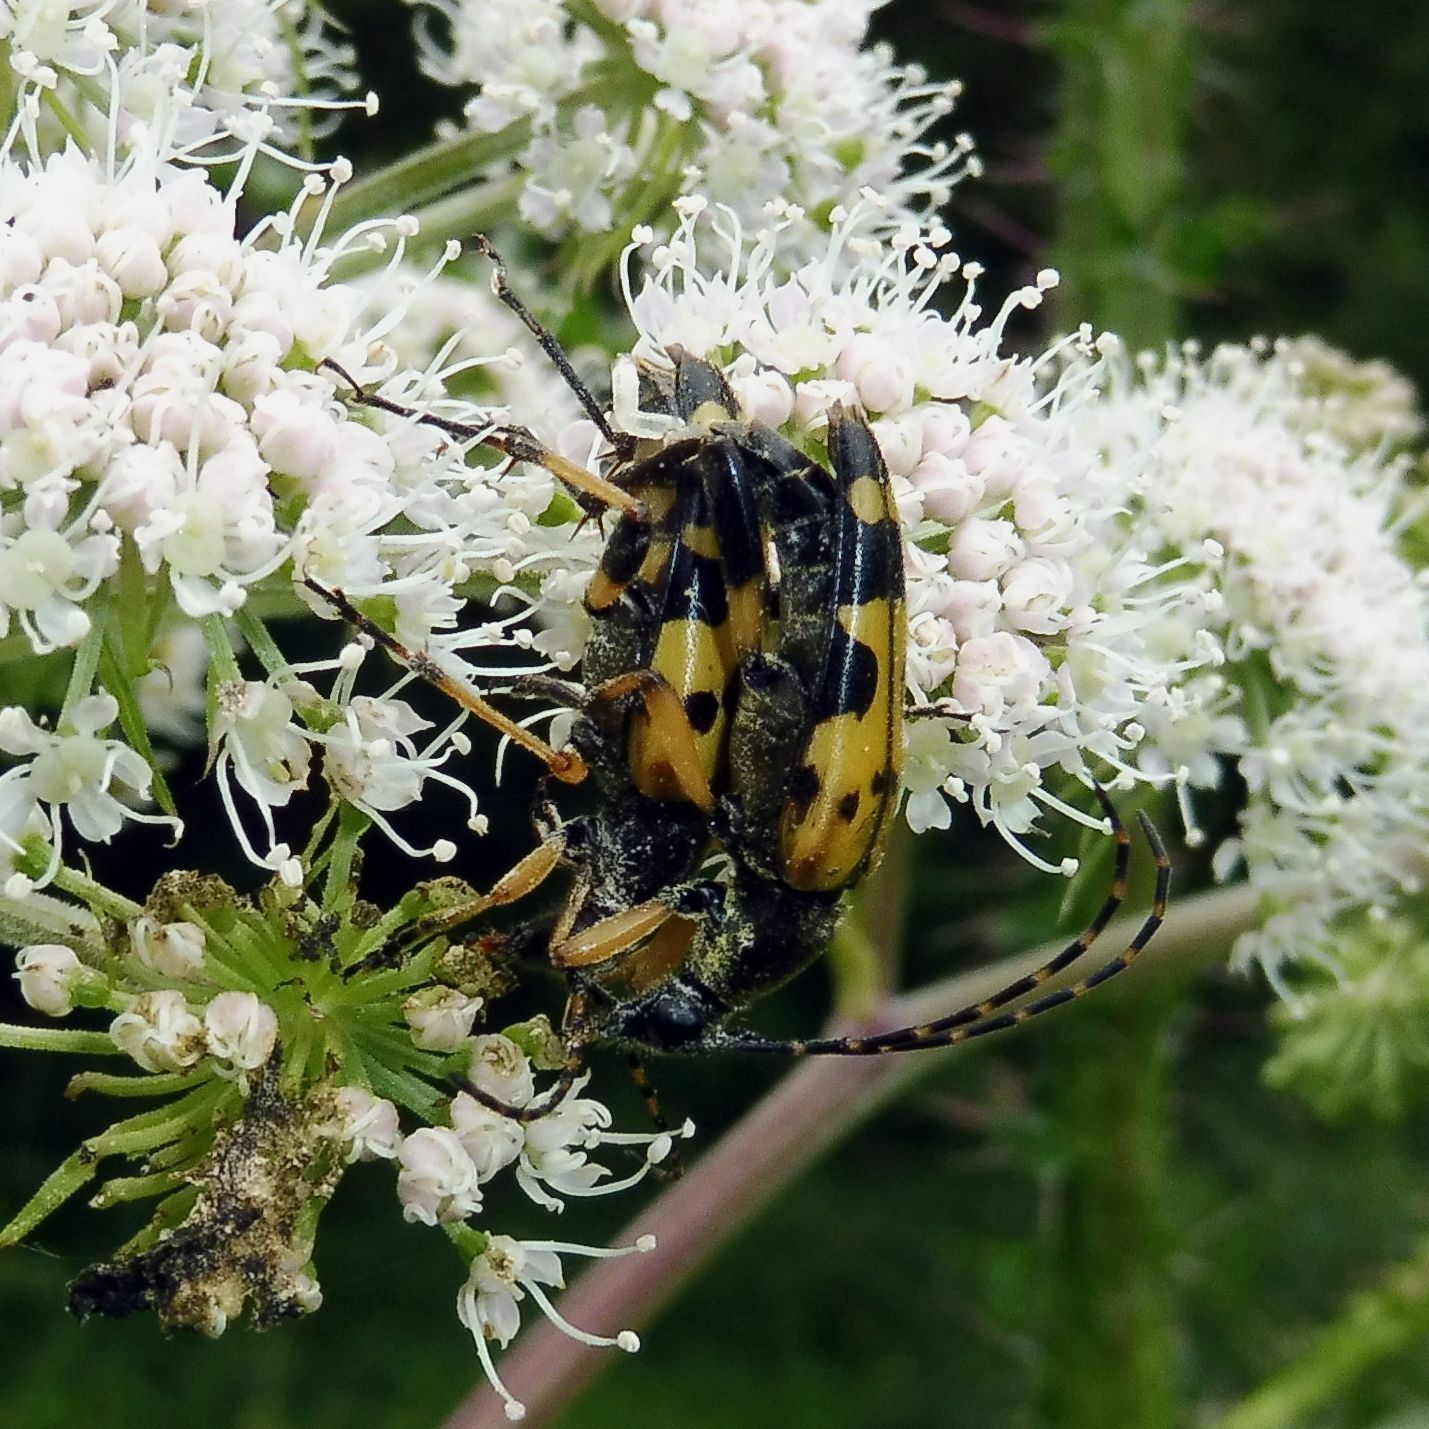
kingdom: Animalia
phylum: Arthropoda
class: Insecta
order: Coleoptera
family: Cerambycidae
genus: Rutpela
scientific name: Rutpela maculata
